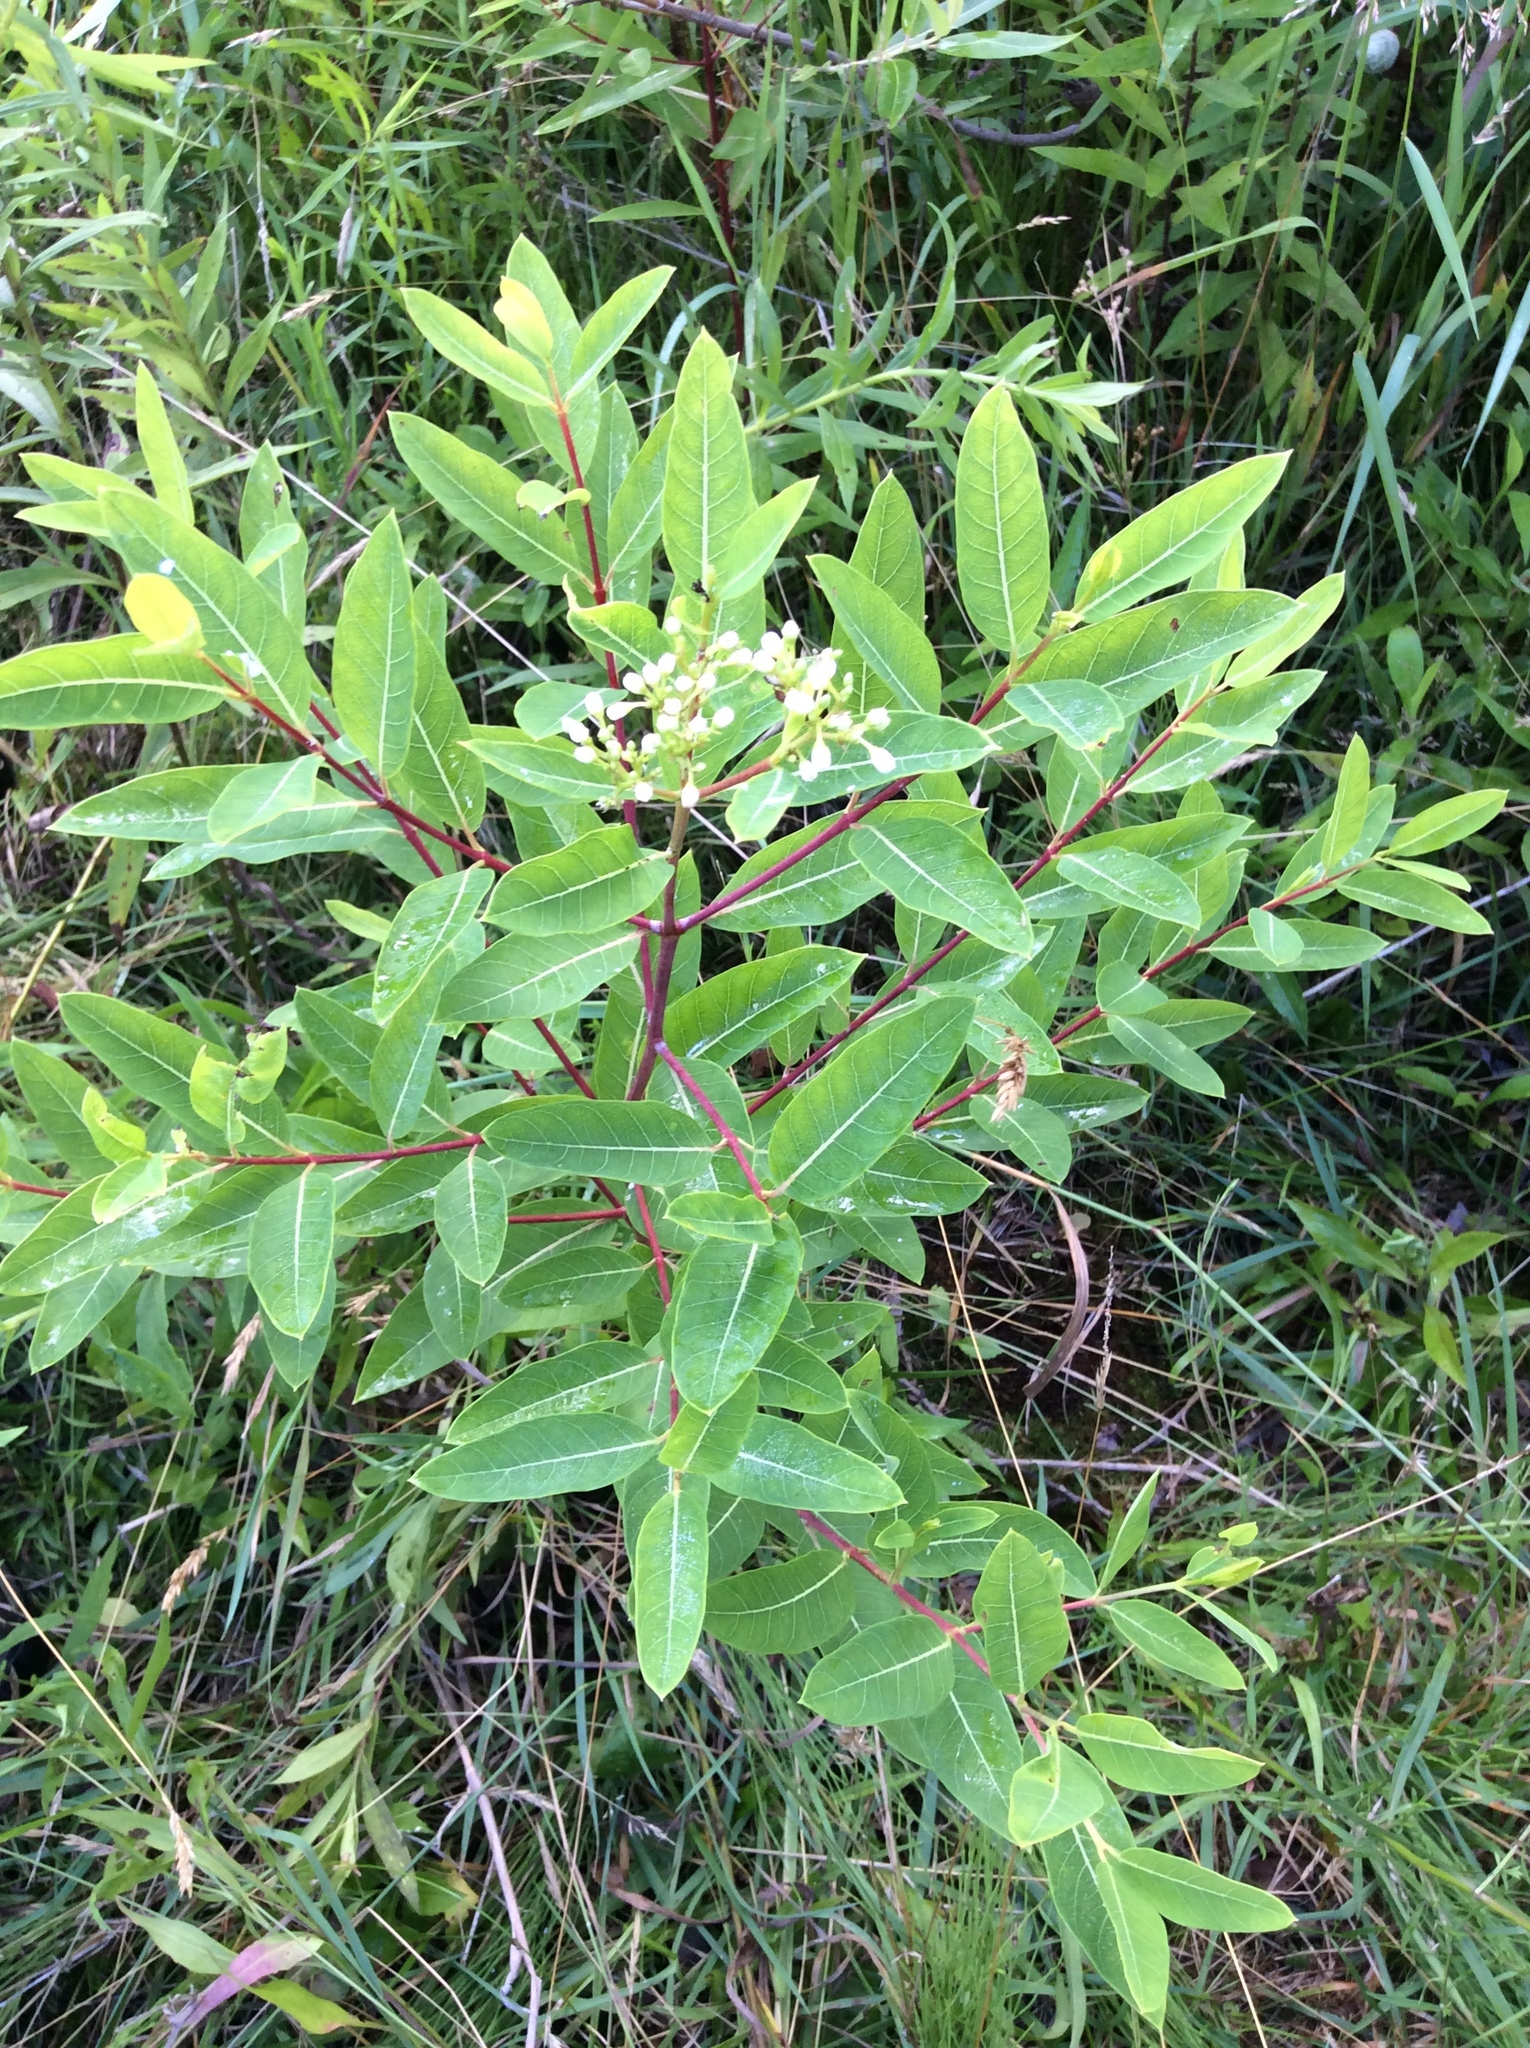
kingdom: Plantae
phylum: Tracheophyta
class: Magnoliopsida
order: Gentianales
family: Apocynaceae
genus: Apocynum
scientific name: Apocynum cannabinum
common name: Hemp dogbane
